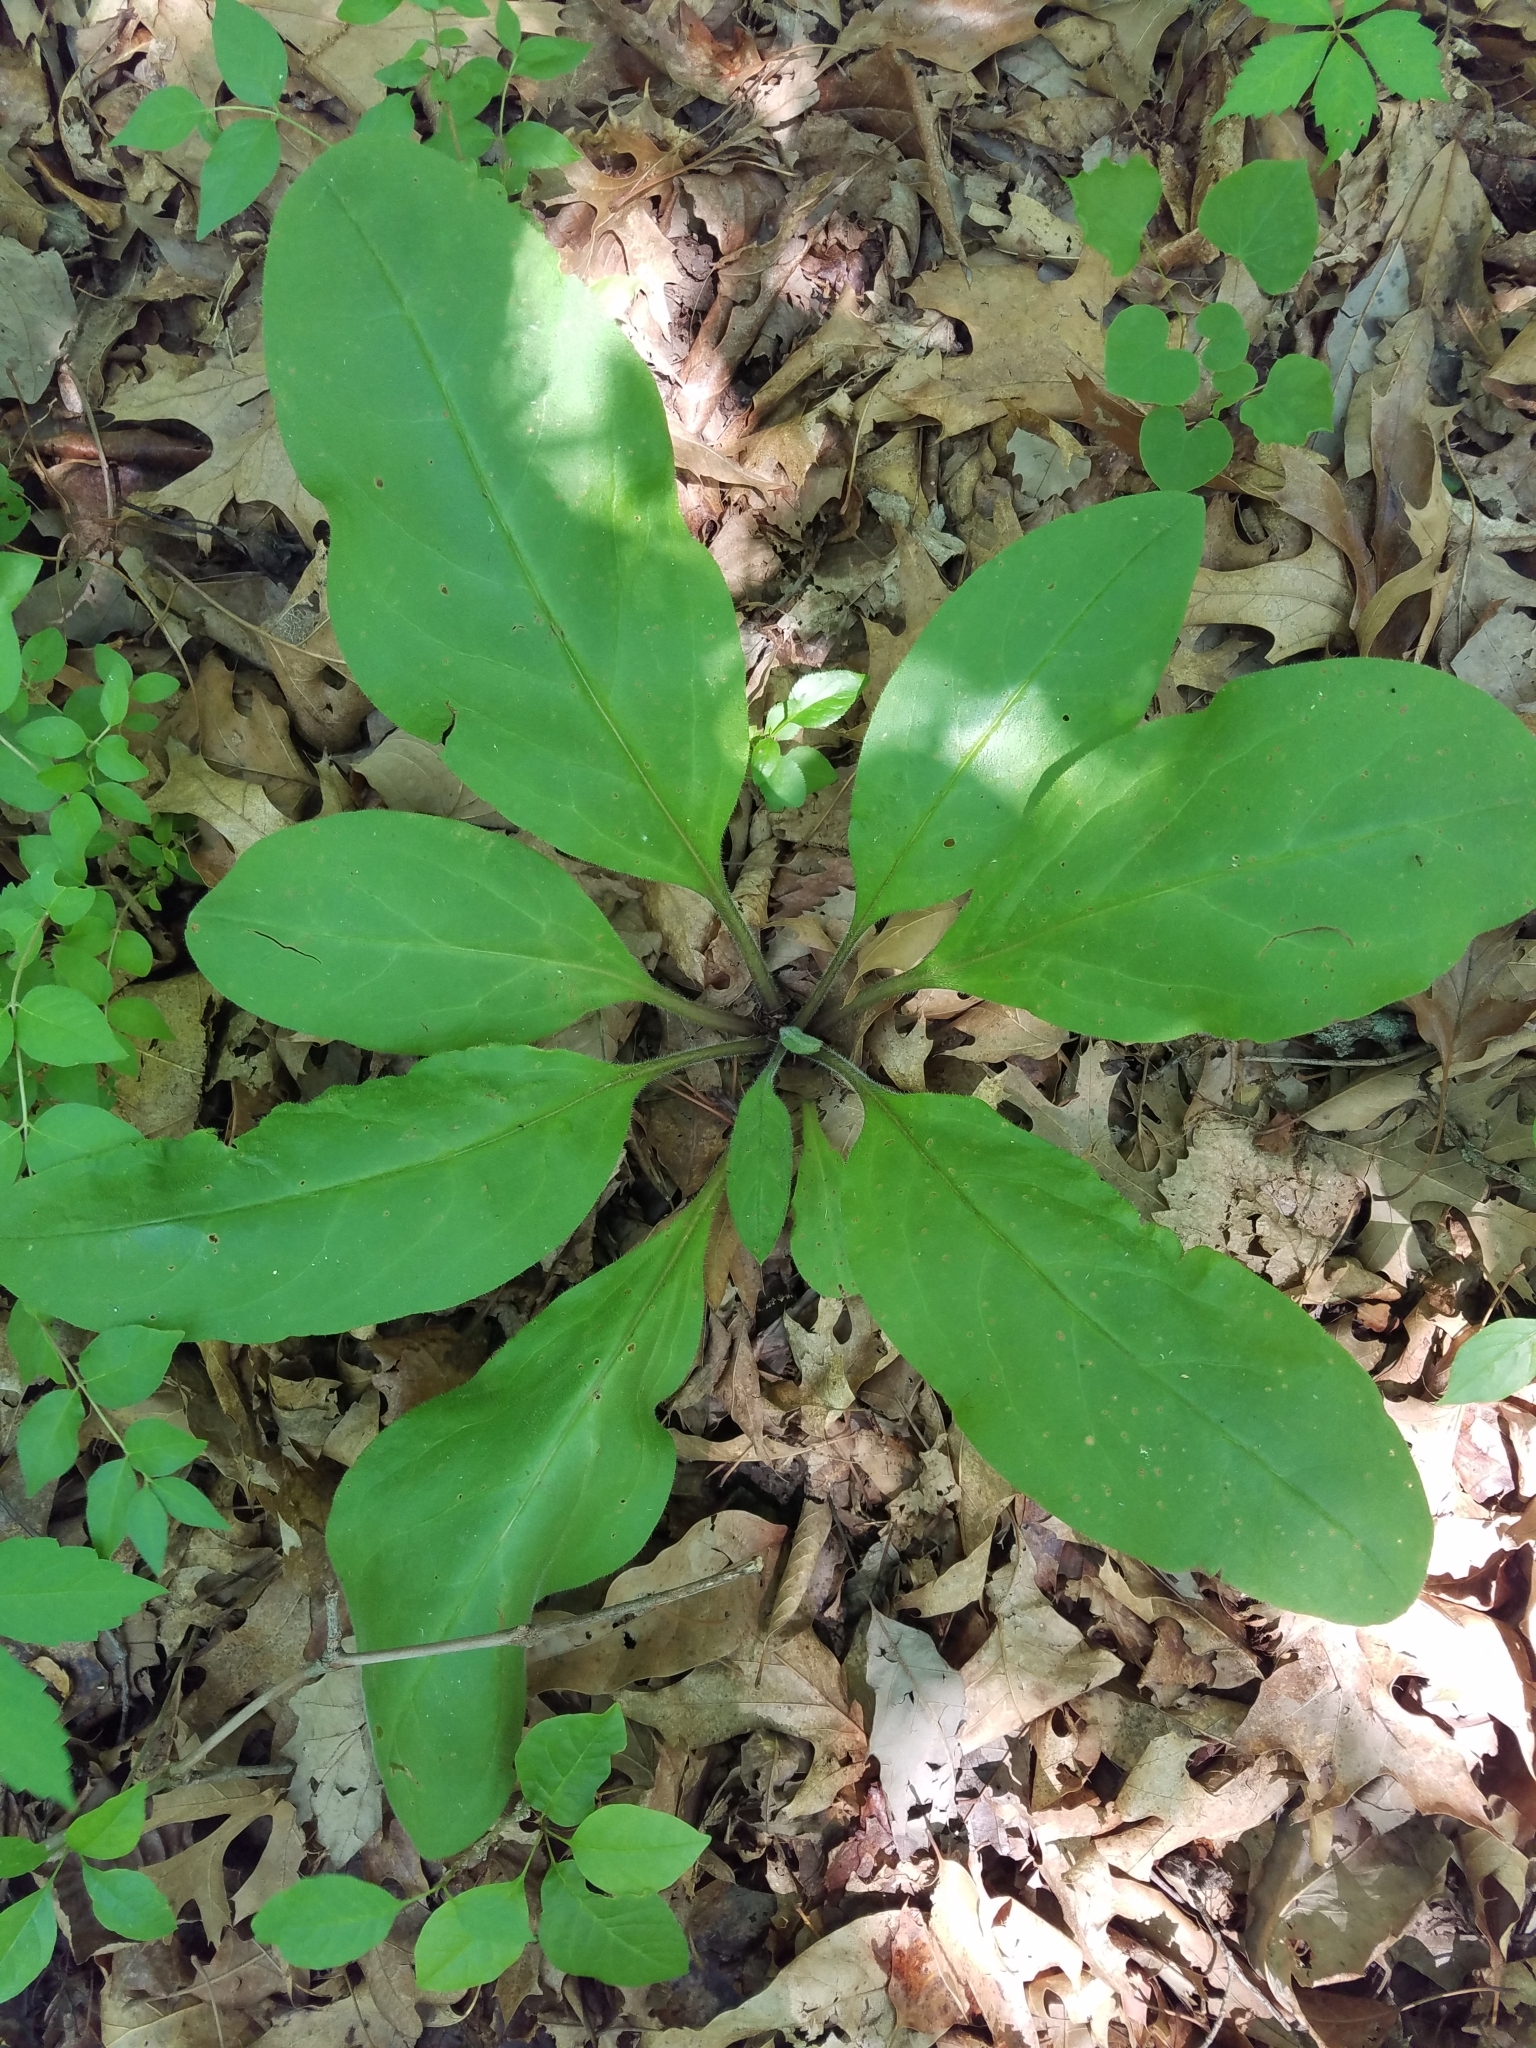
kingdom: Plantae
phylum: Tracheophyta
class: Magnoliopsida
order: Boraginales
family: Boraginaceae
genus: Andersonglossum
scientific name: Andersonglossum virginianum
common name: Wild comfrey
